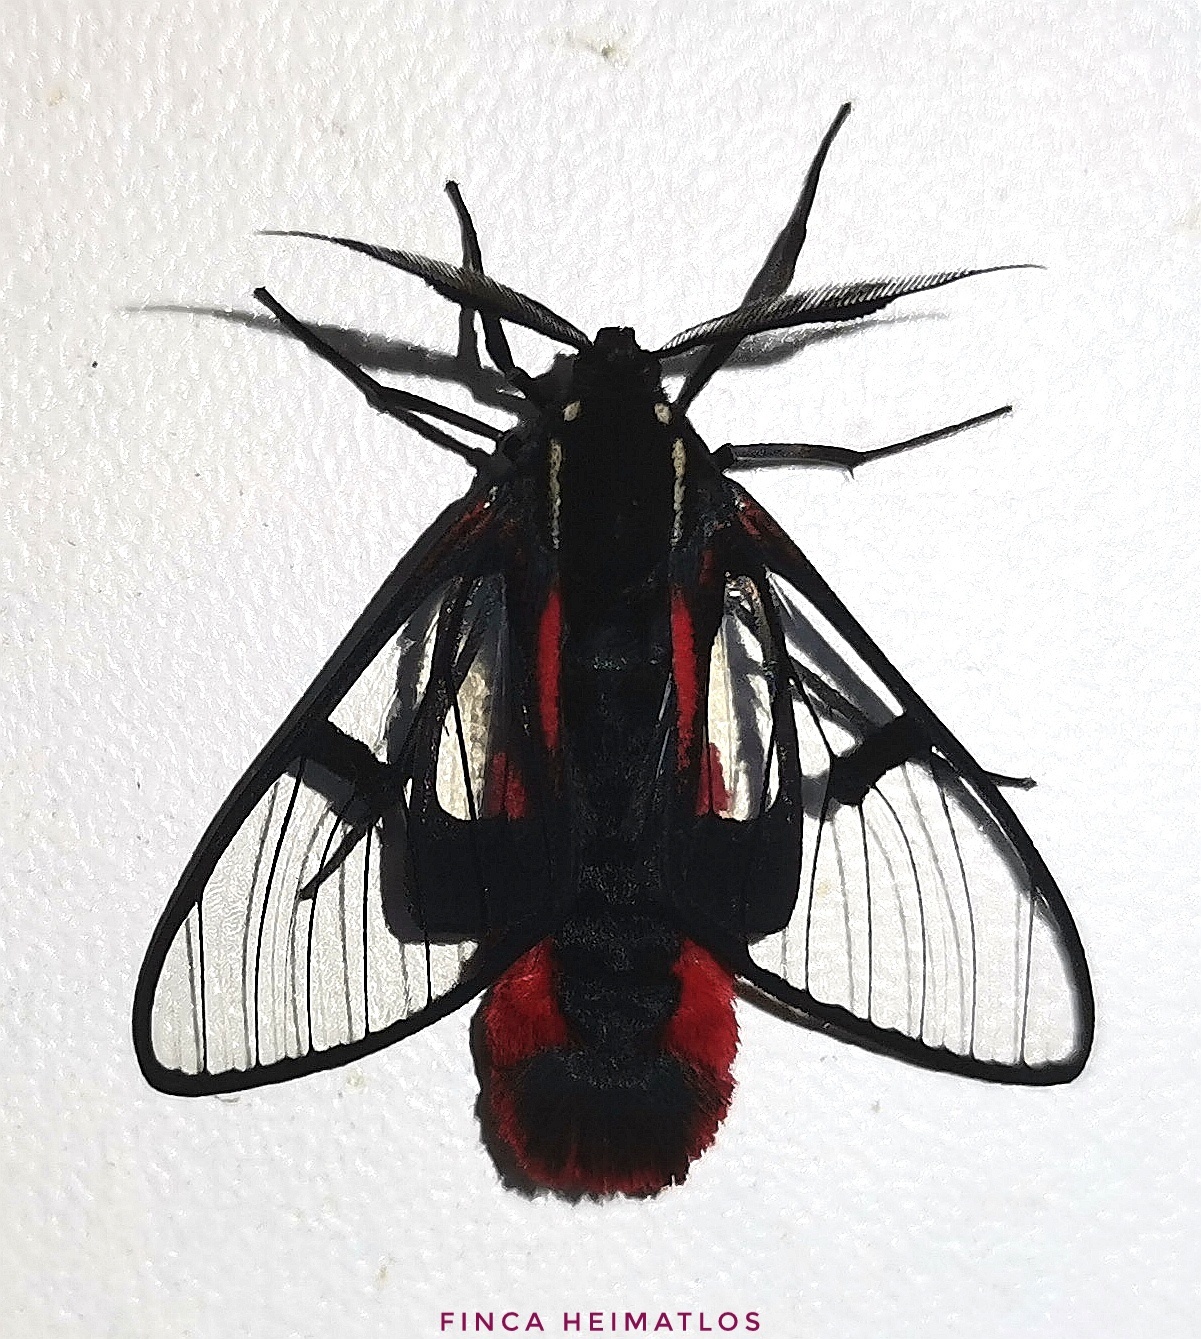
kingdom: Animalia
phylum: Arthropoda
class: Insecta
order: Lepidoptera
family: Erebidae
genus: Dinia
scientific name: Dinia eagrus
